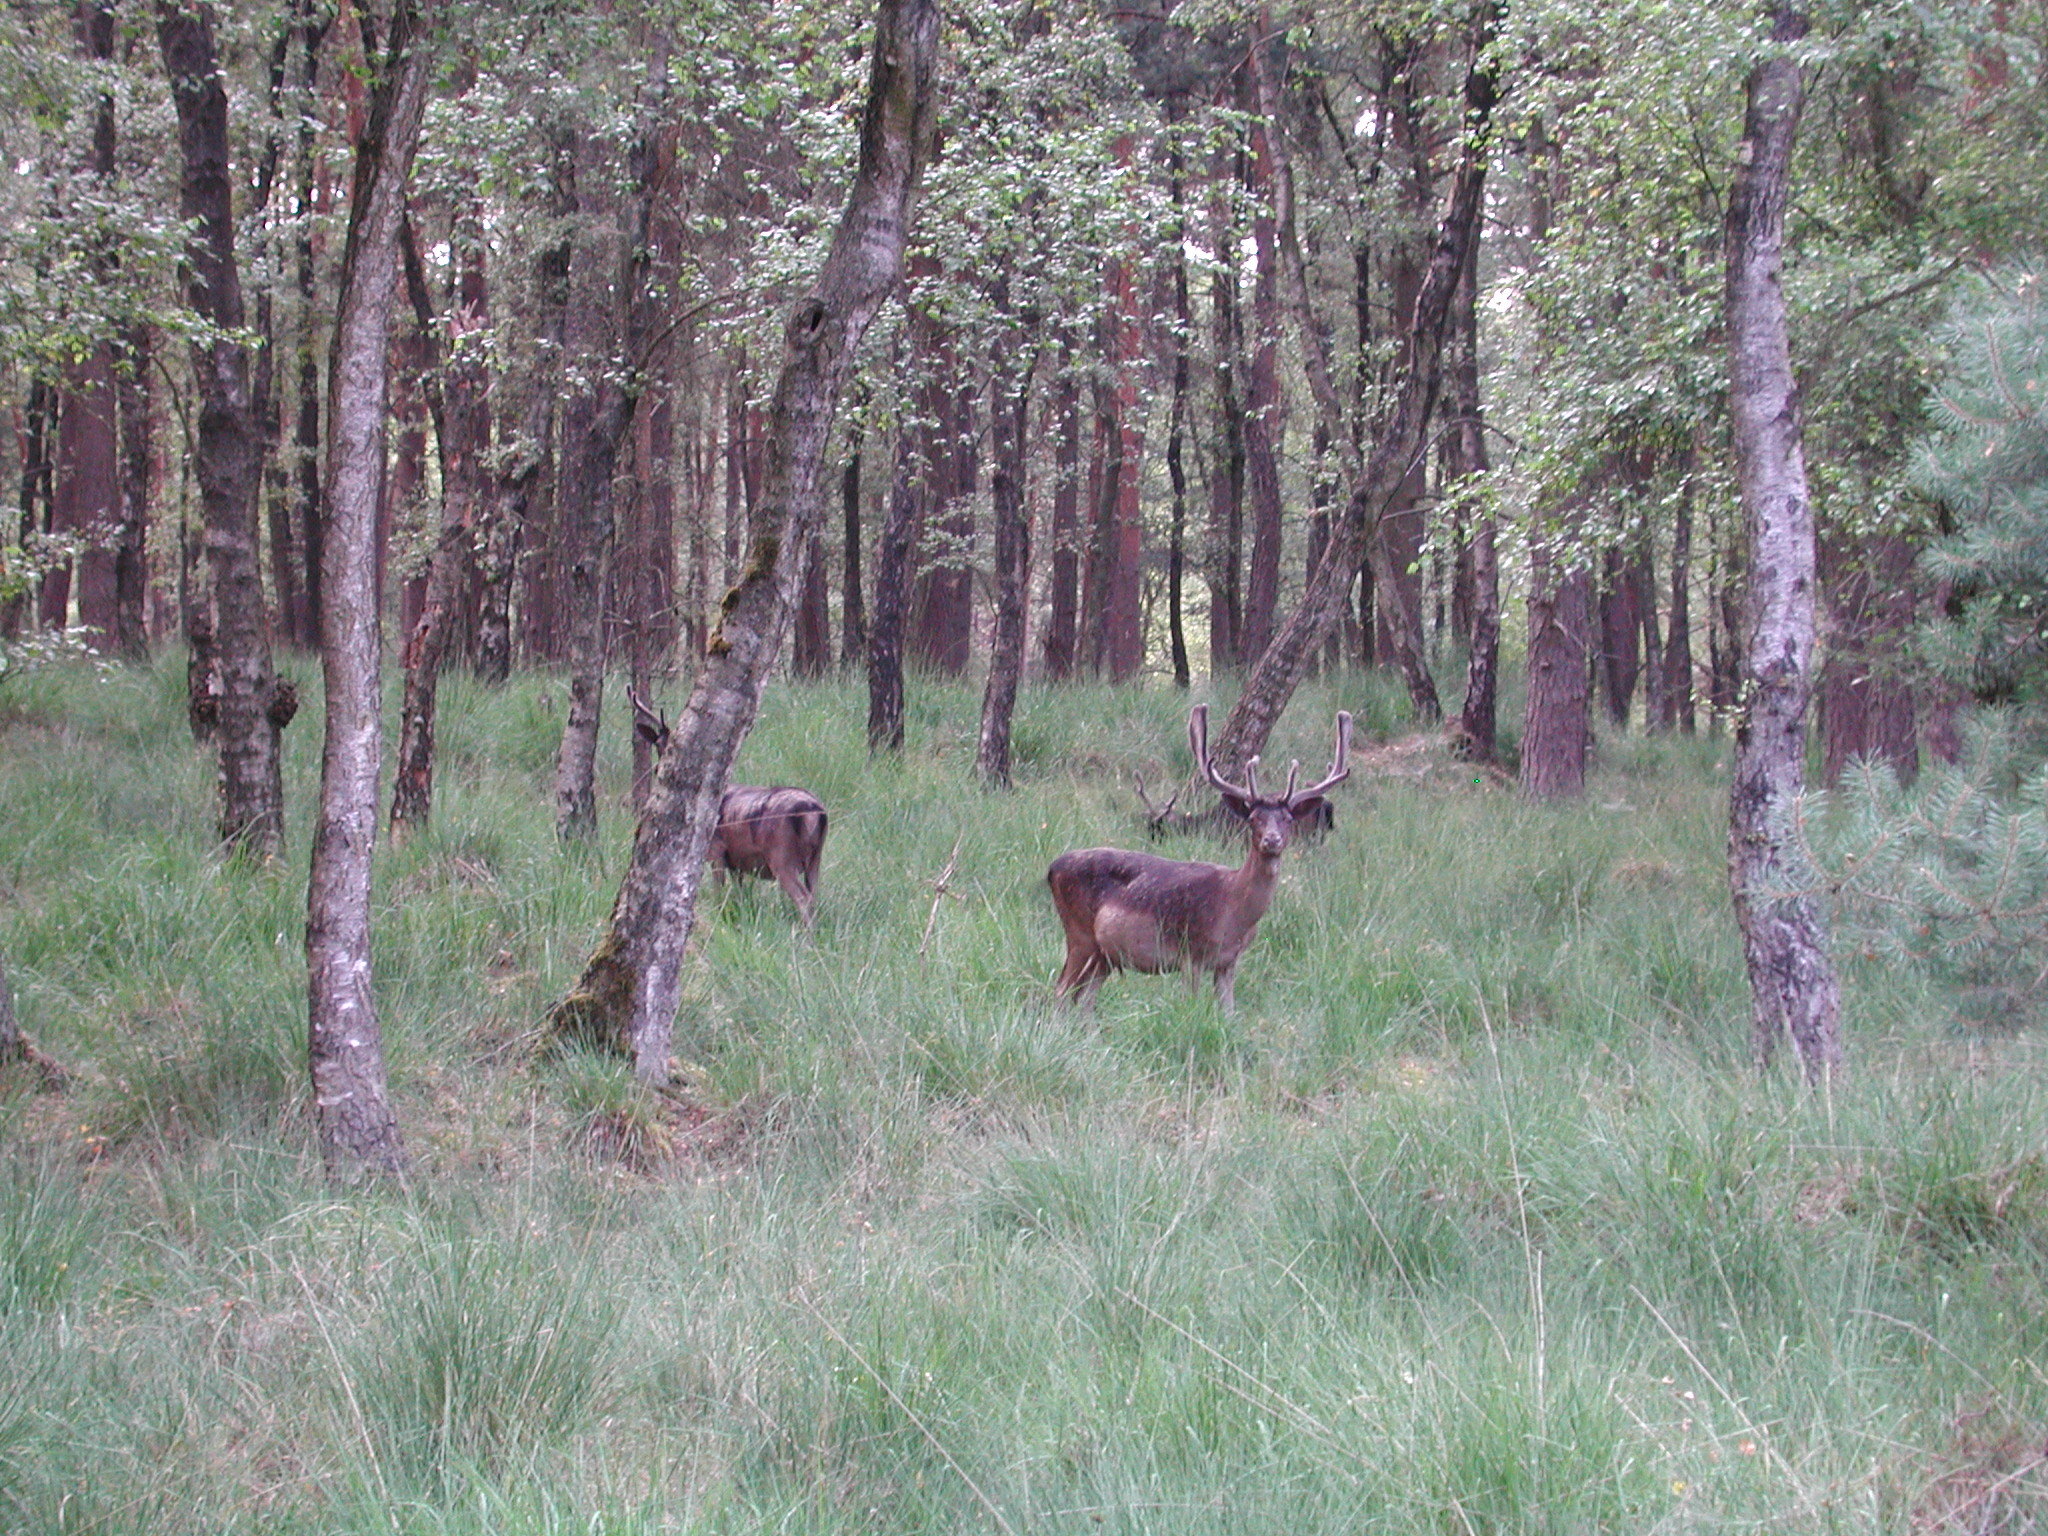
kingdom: Animalia
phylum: Chordata
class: Mammalia
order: Artiodactyla
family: Cervidae
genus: Dama
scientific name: Dama dama
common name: Fallow deer
